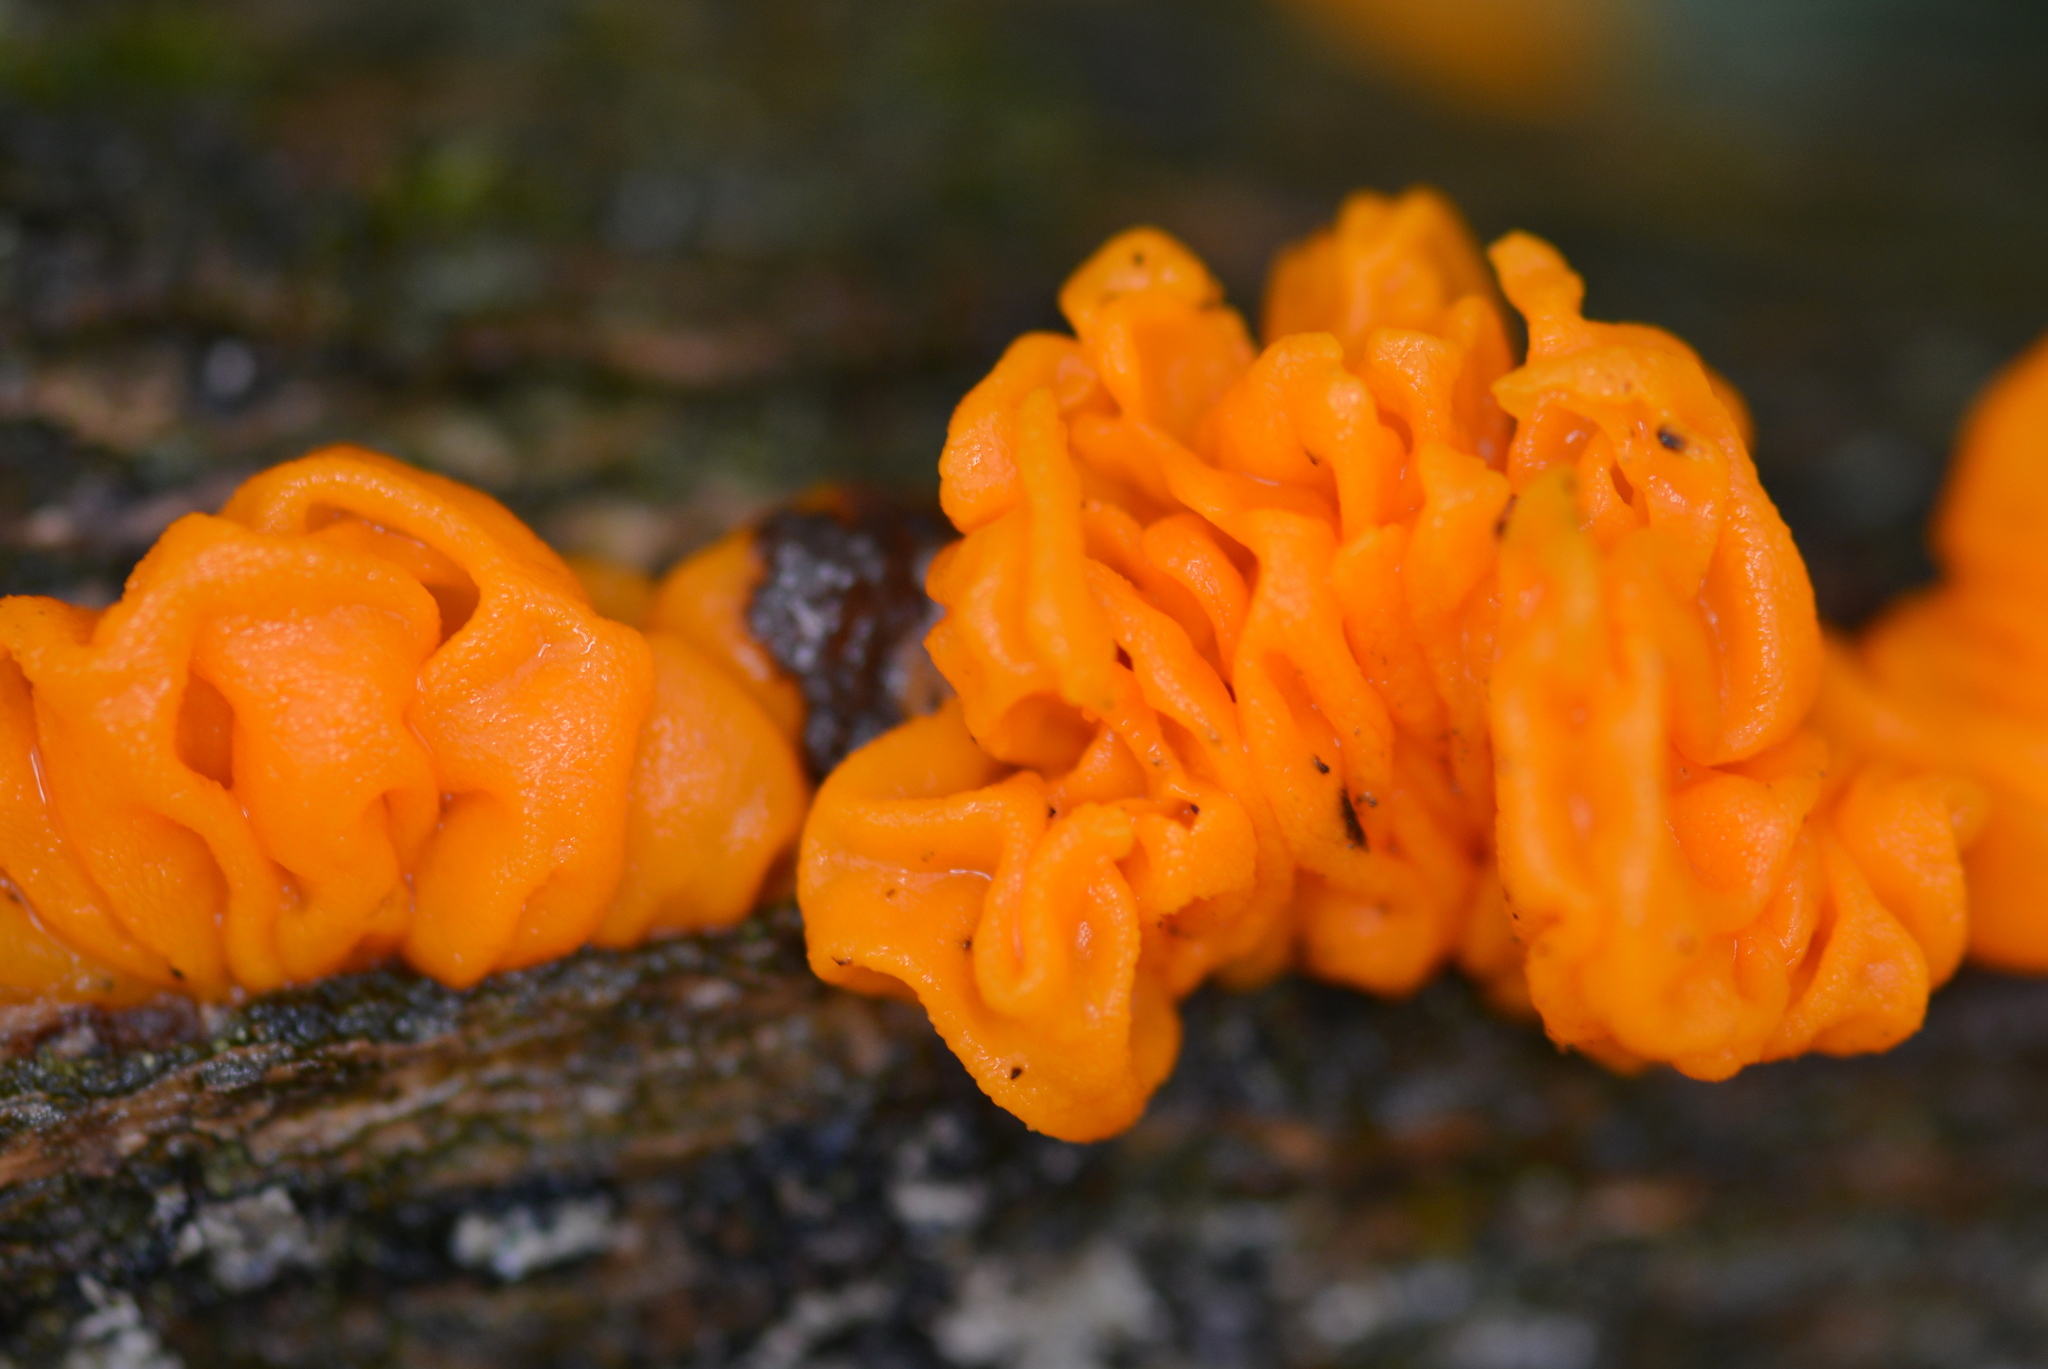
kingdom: Fungi
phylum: Basidiomycota
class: Tremellomycetes
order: Tremellales
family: Tremellaceae
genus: Tremella
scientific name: Tremella mesenterica
